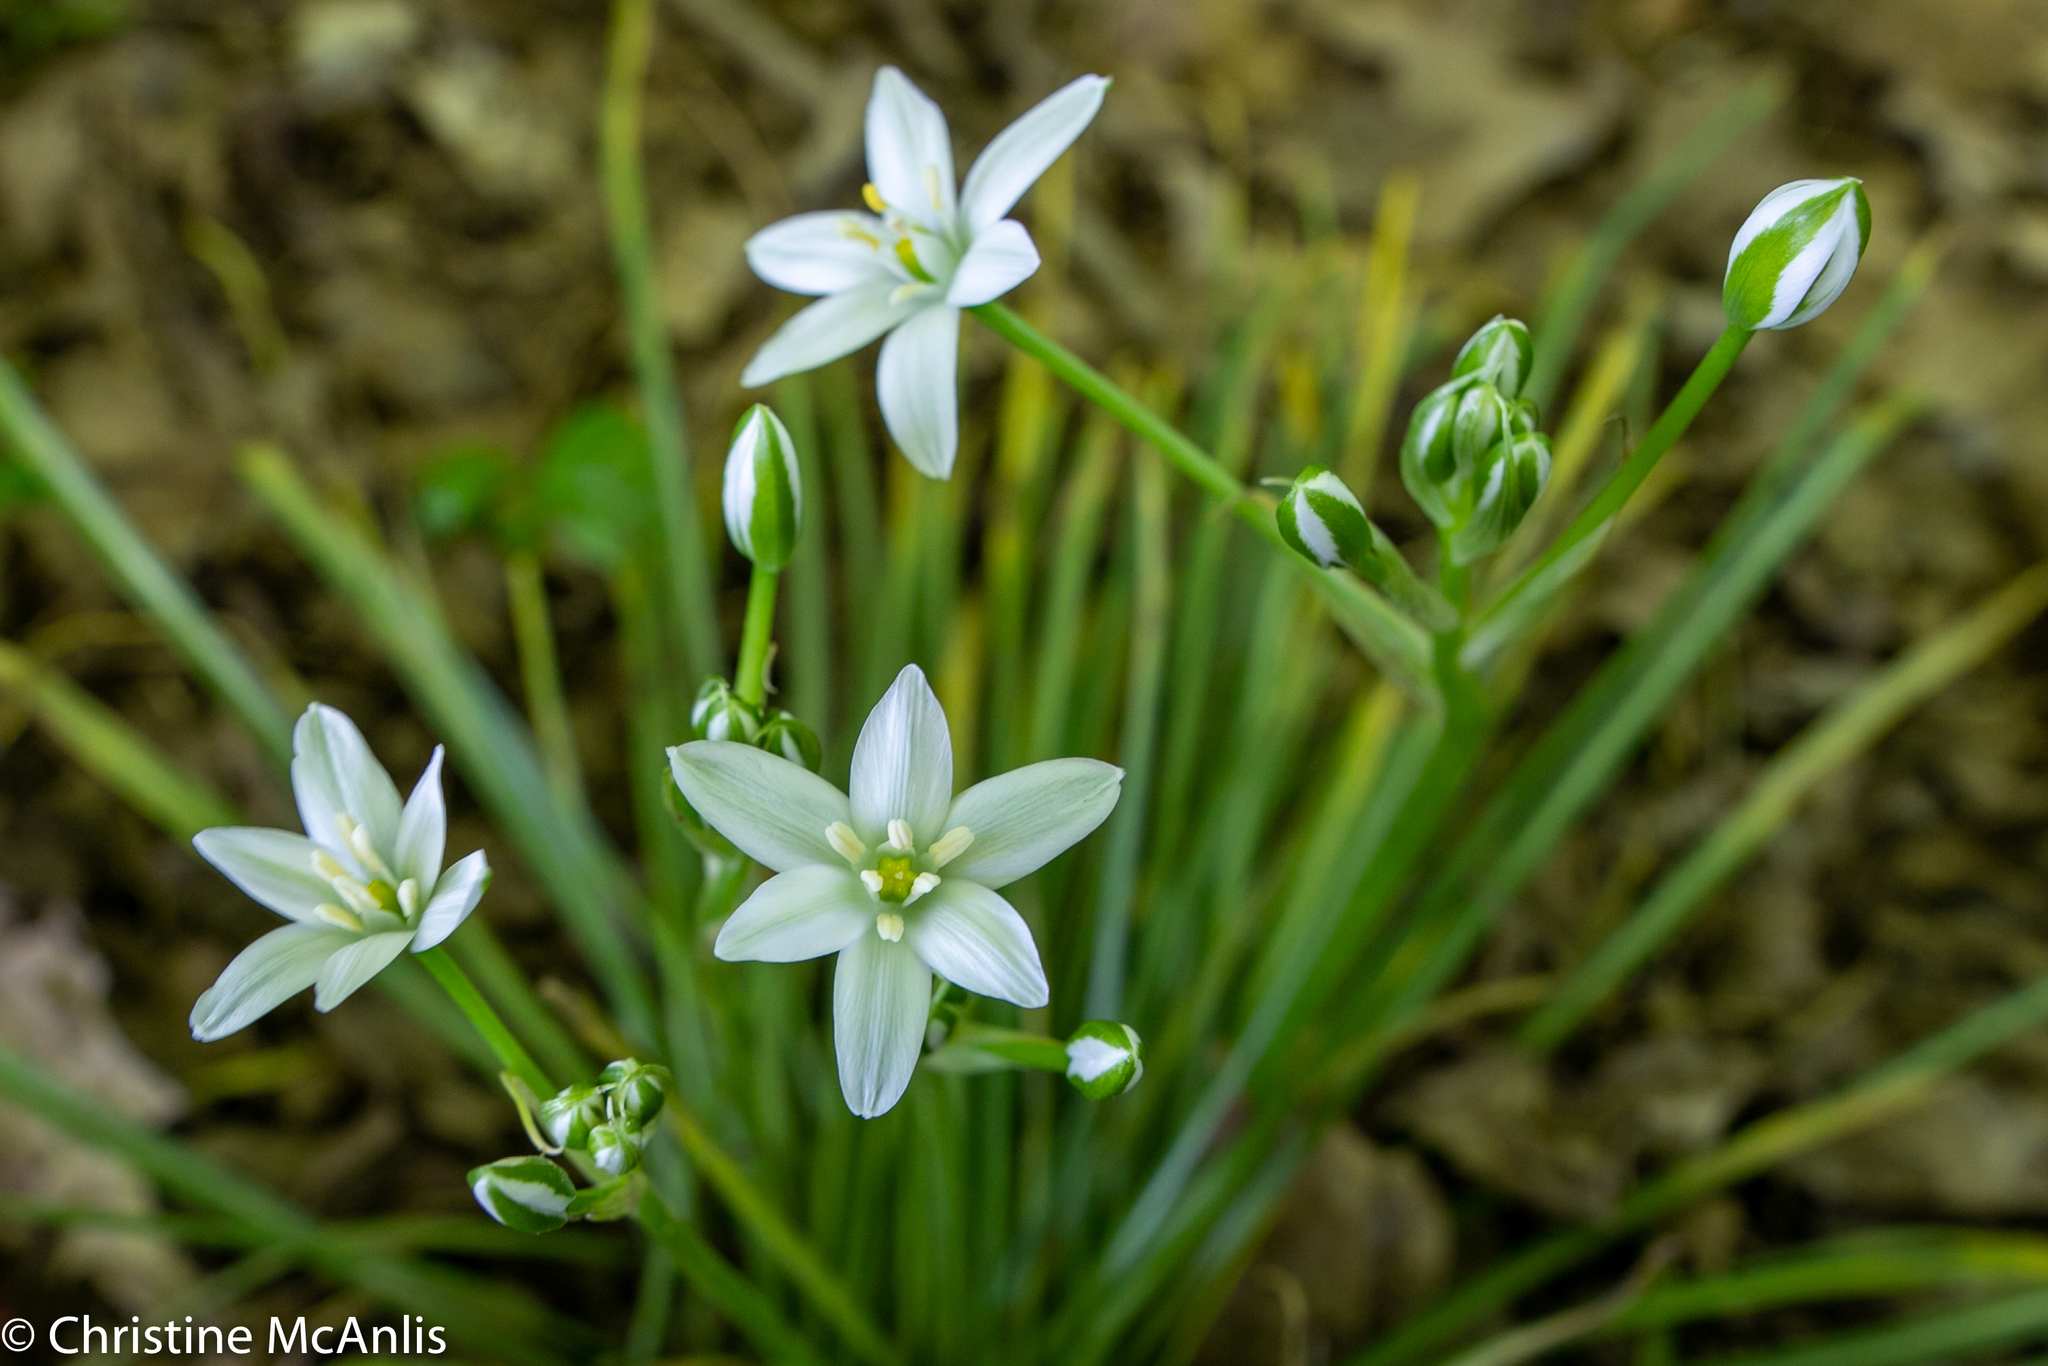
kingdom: Plantae
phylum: Tracheophyta
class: Liliopsida
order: Asparagales
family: Asparagaceae
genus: Ornithogalum
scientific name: Ornithogalum umbellatum
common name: Garden star-of-bethlehem
